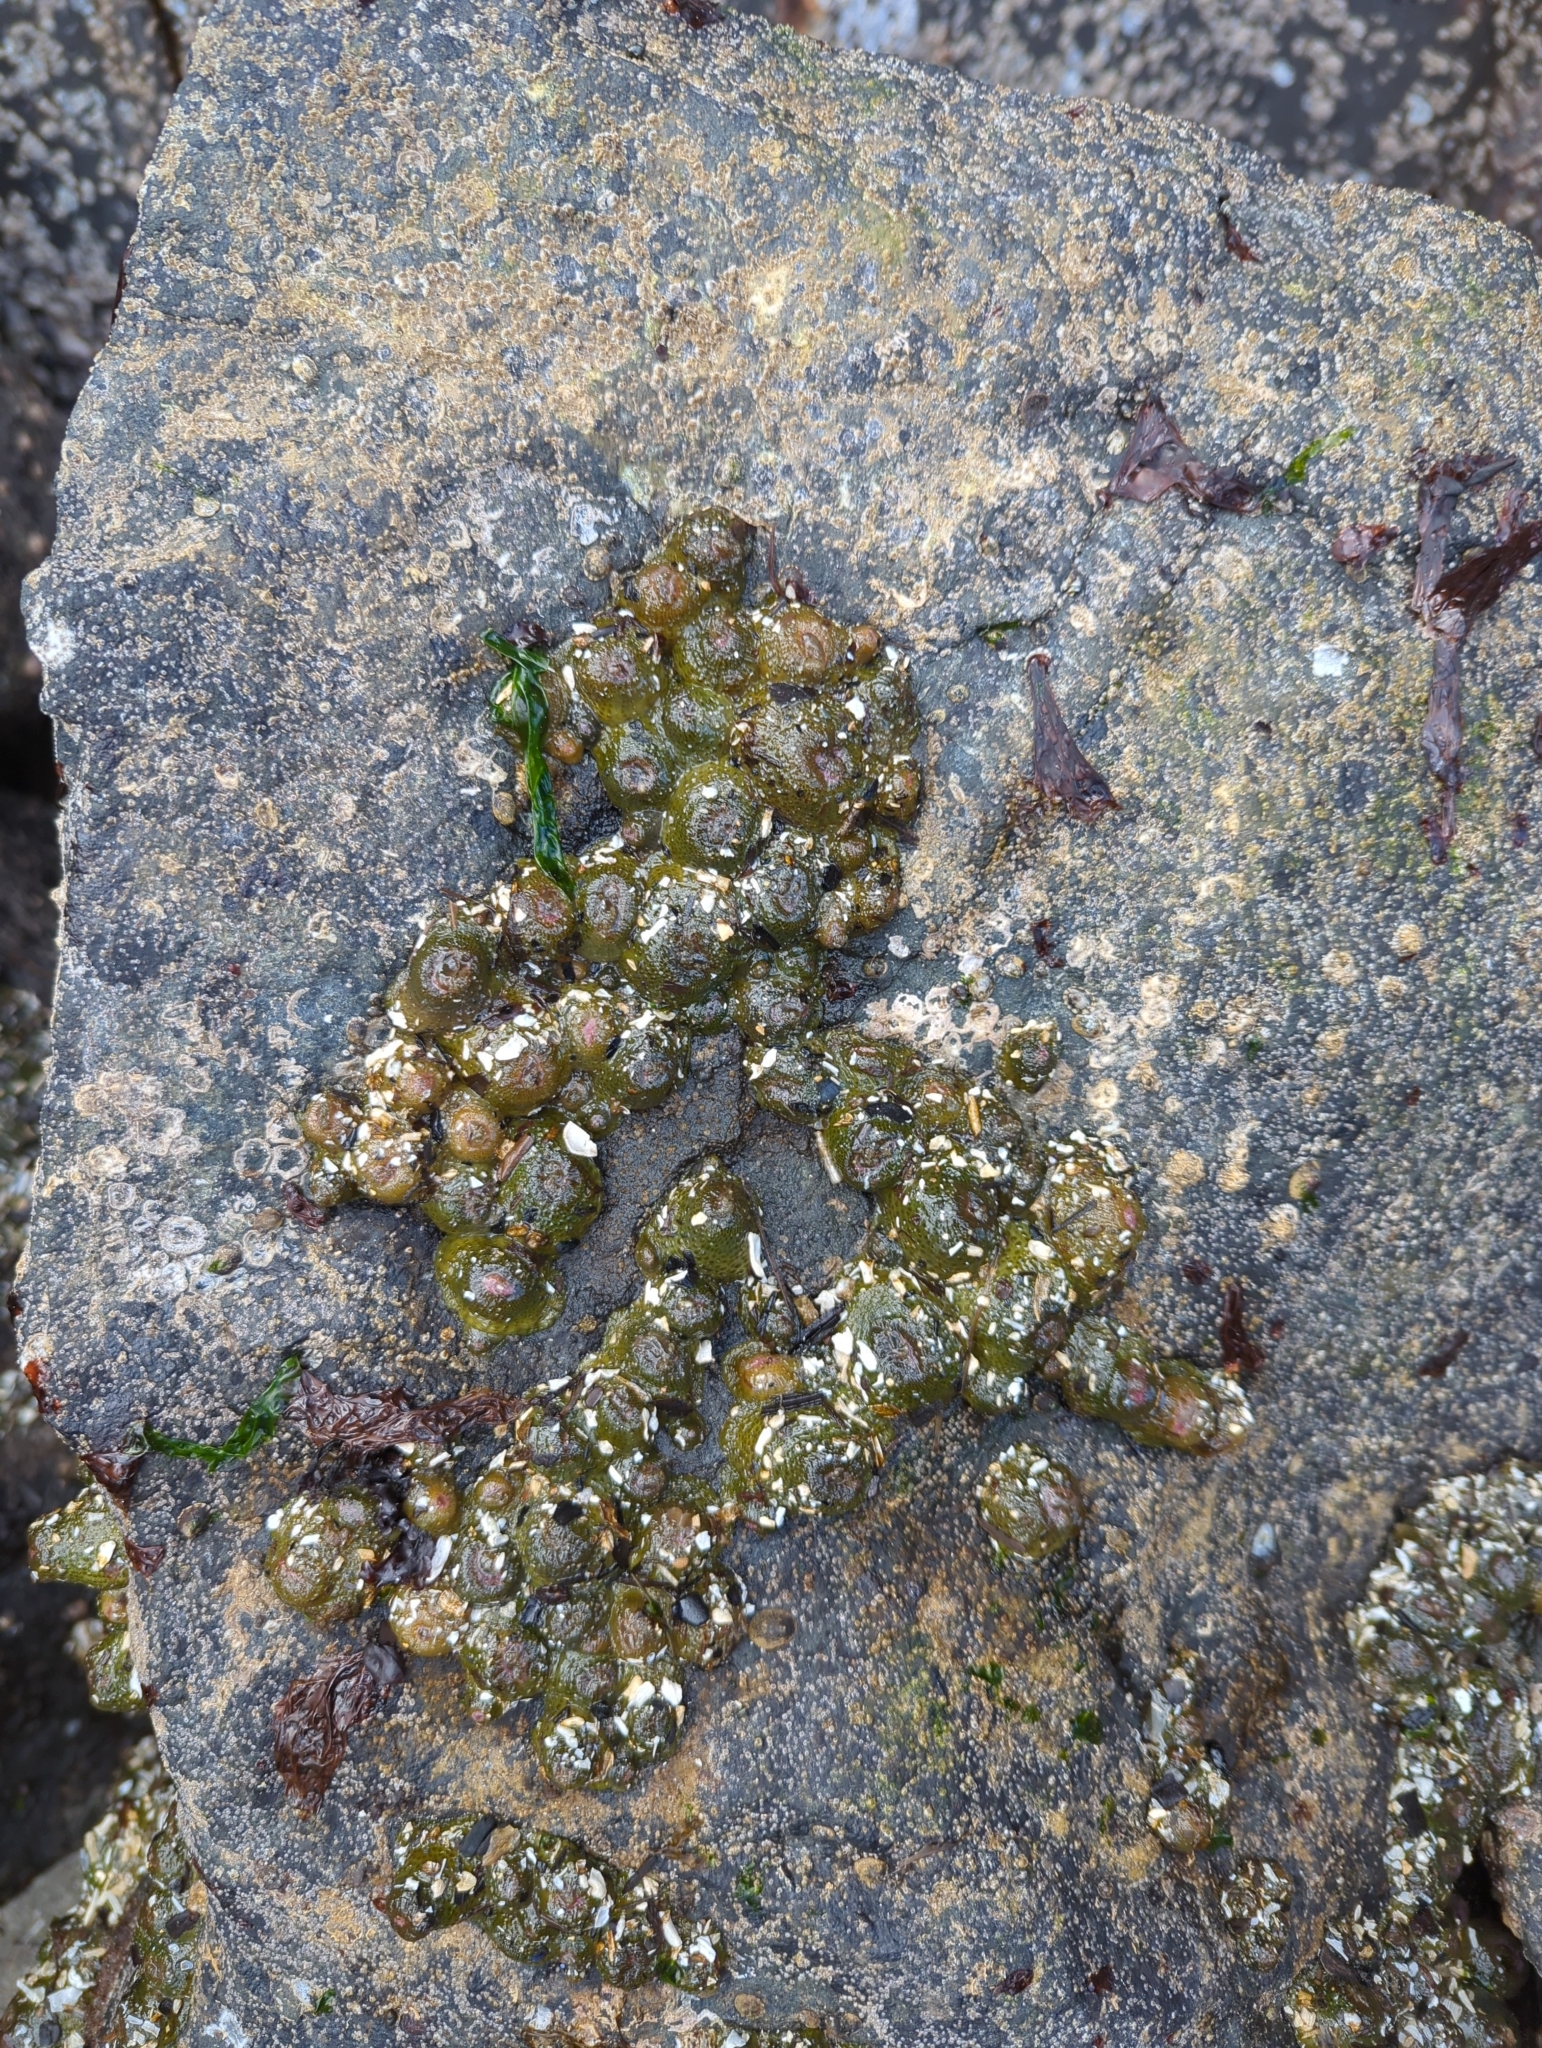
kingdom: Animalia
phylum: Cnidaria
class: Anthozoa
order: Actiniaria
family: Actiniidae
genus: Anthopleura
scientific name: Anthopleura elegantissima
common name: Clonal anemone
